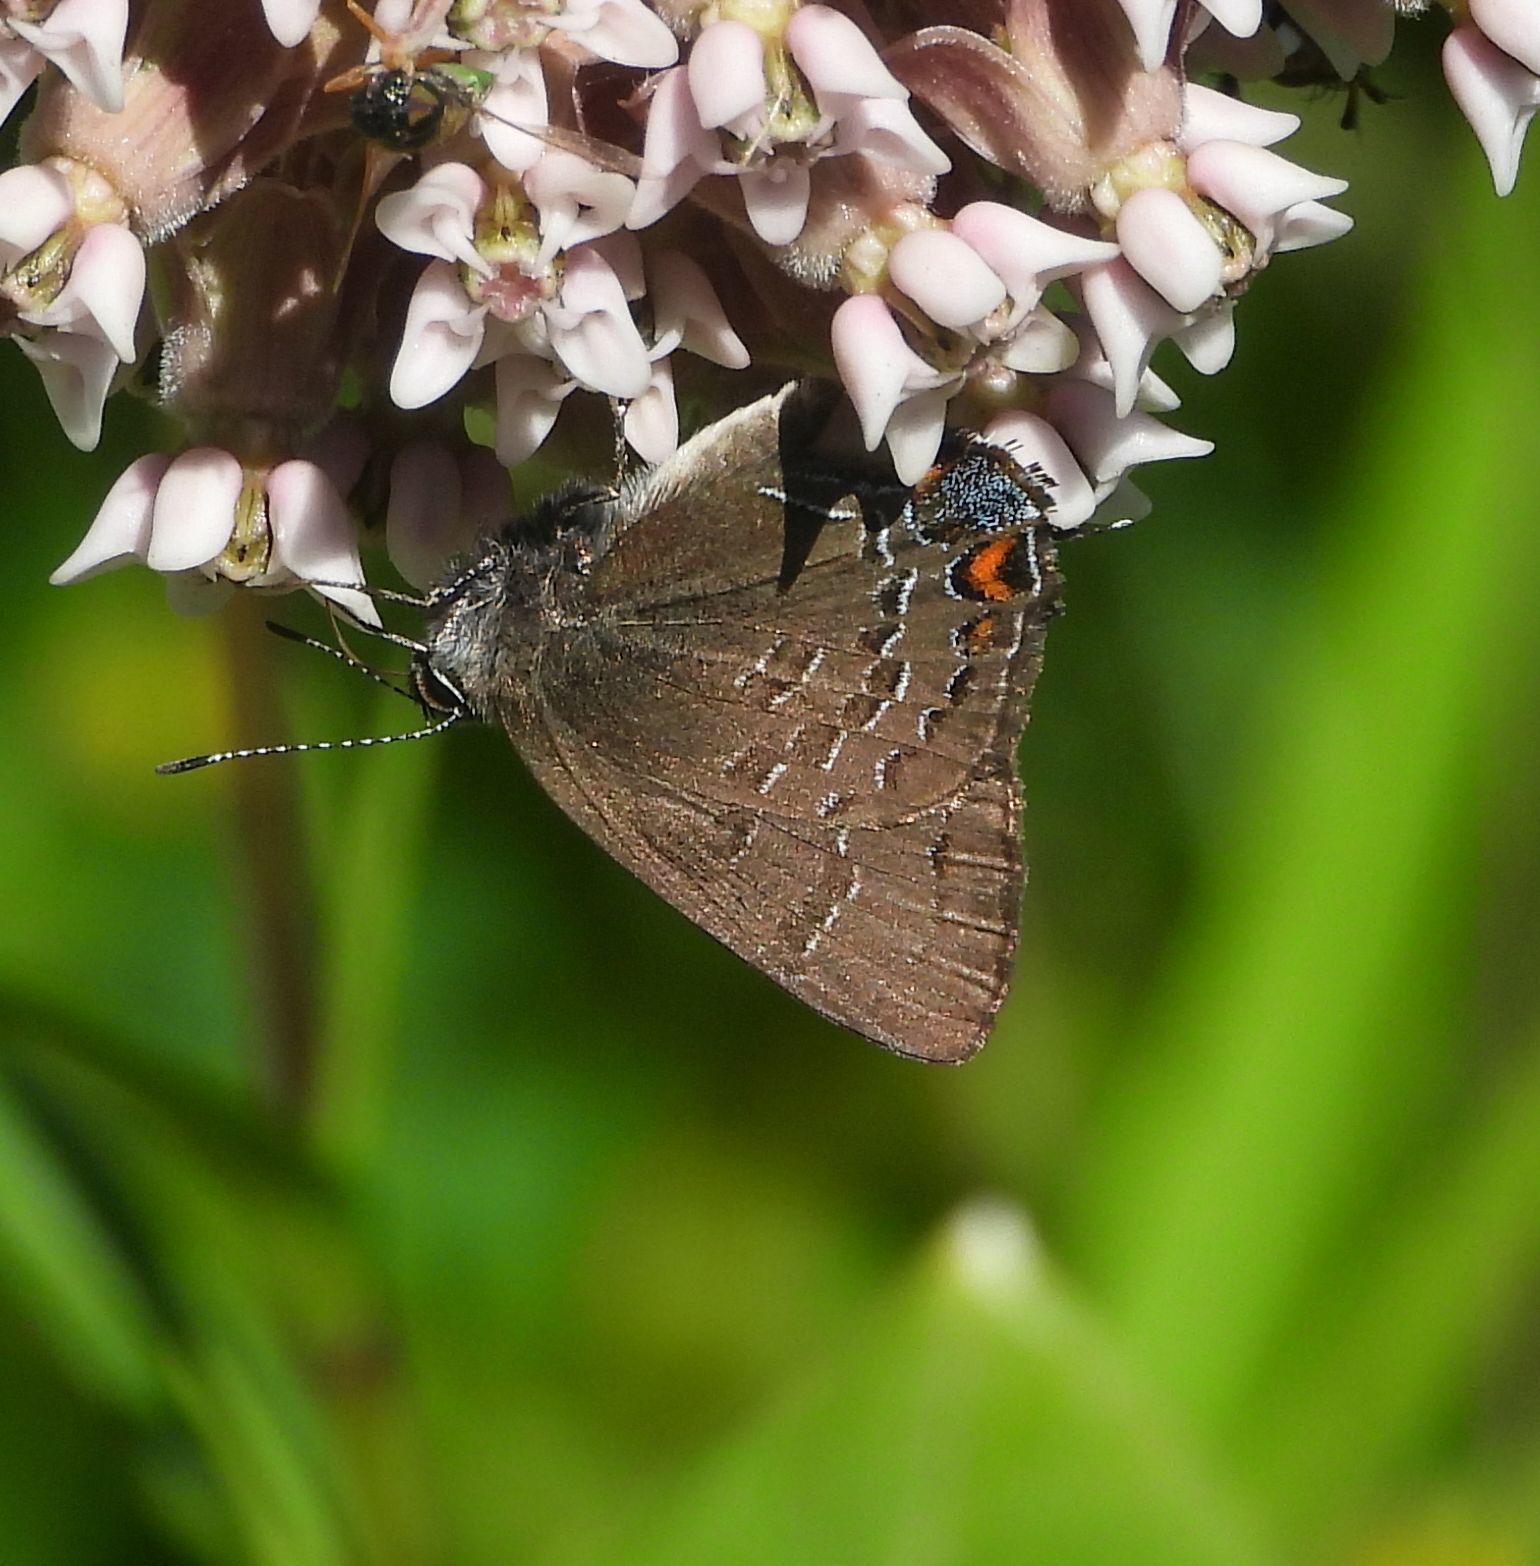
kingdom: Animalia
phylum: Arthropoda
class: Insecta
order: Lepidoptera
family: Lycaenidae
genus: Satyrium
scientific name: Satyrium calanus
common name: Banded hairstreak
